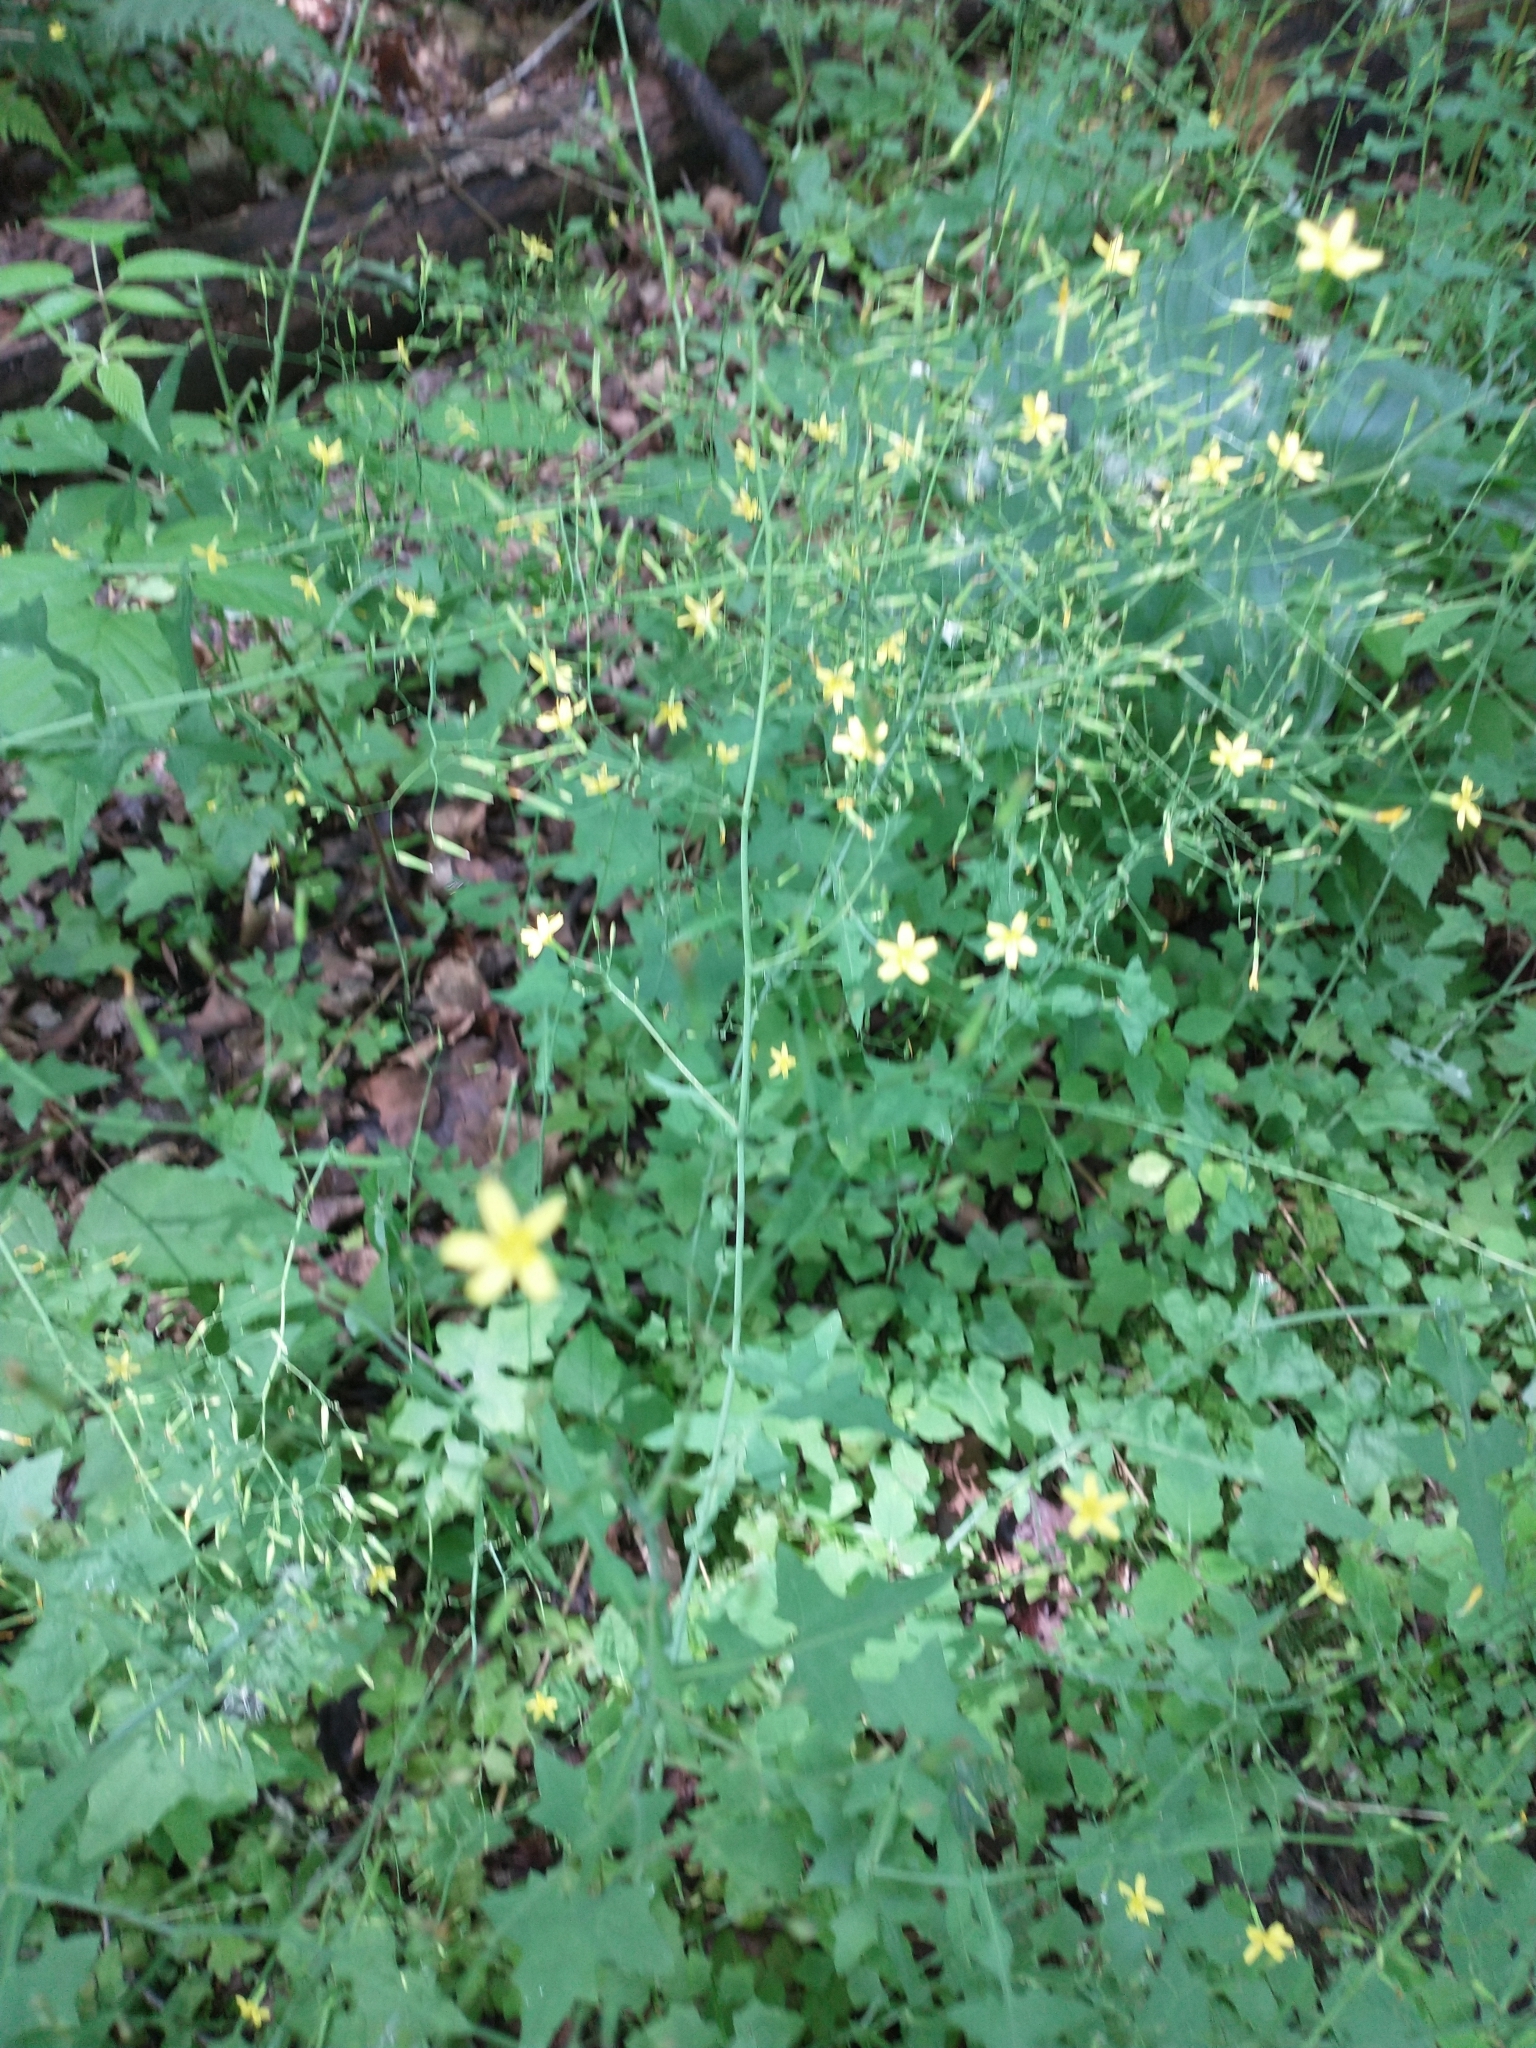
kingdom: Plantae
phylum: Tracheophyta
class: Magnoliopsida
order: Asterales
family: Asteraceae
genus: Mycelis
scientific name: Mycelis muralis
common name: Wall lettuce
